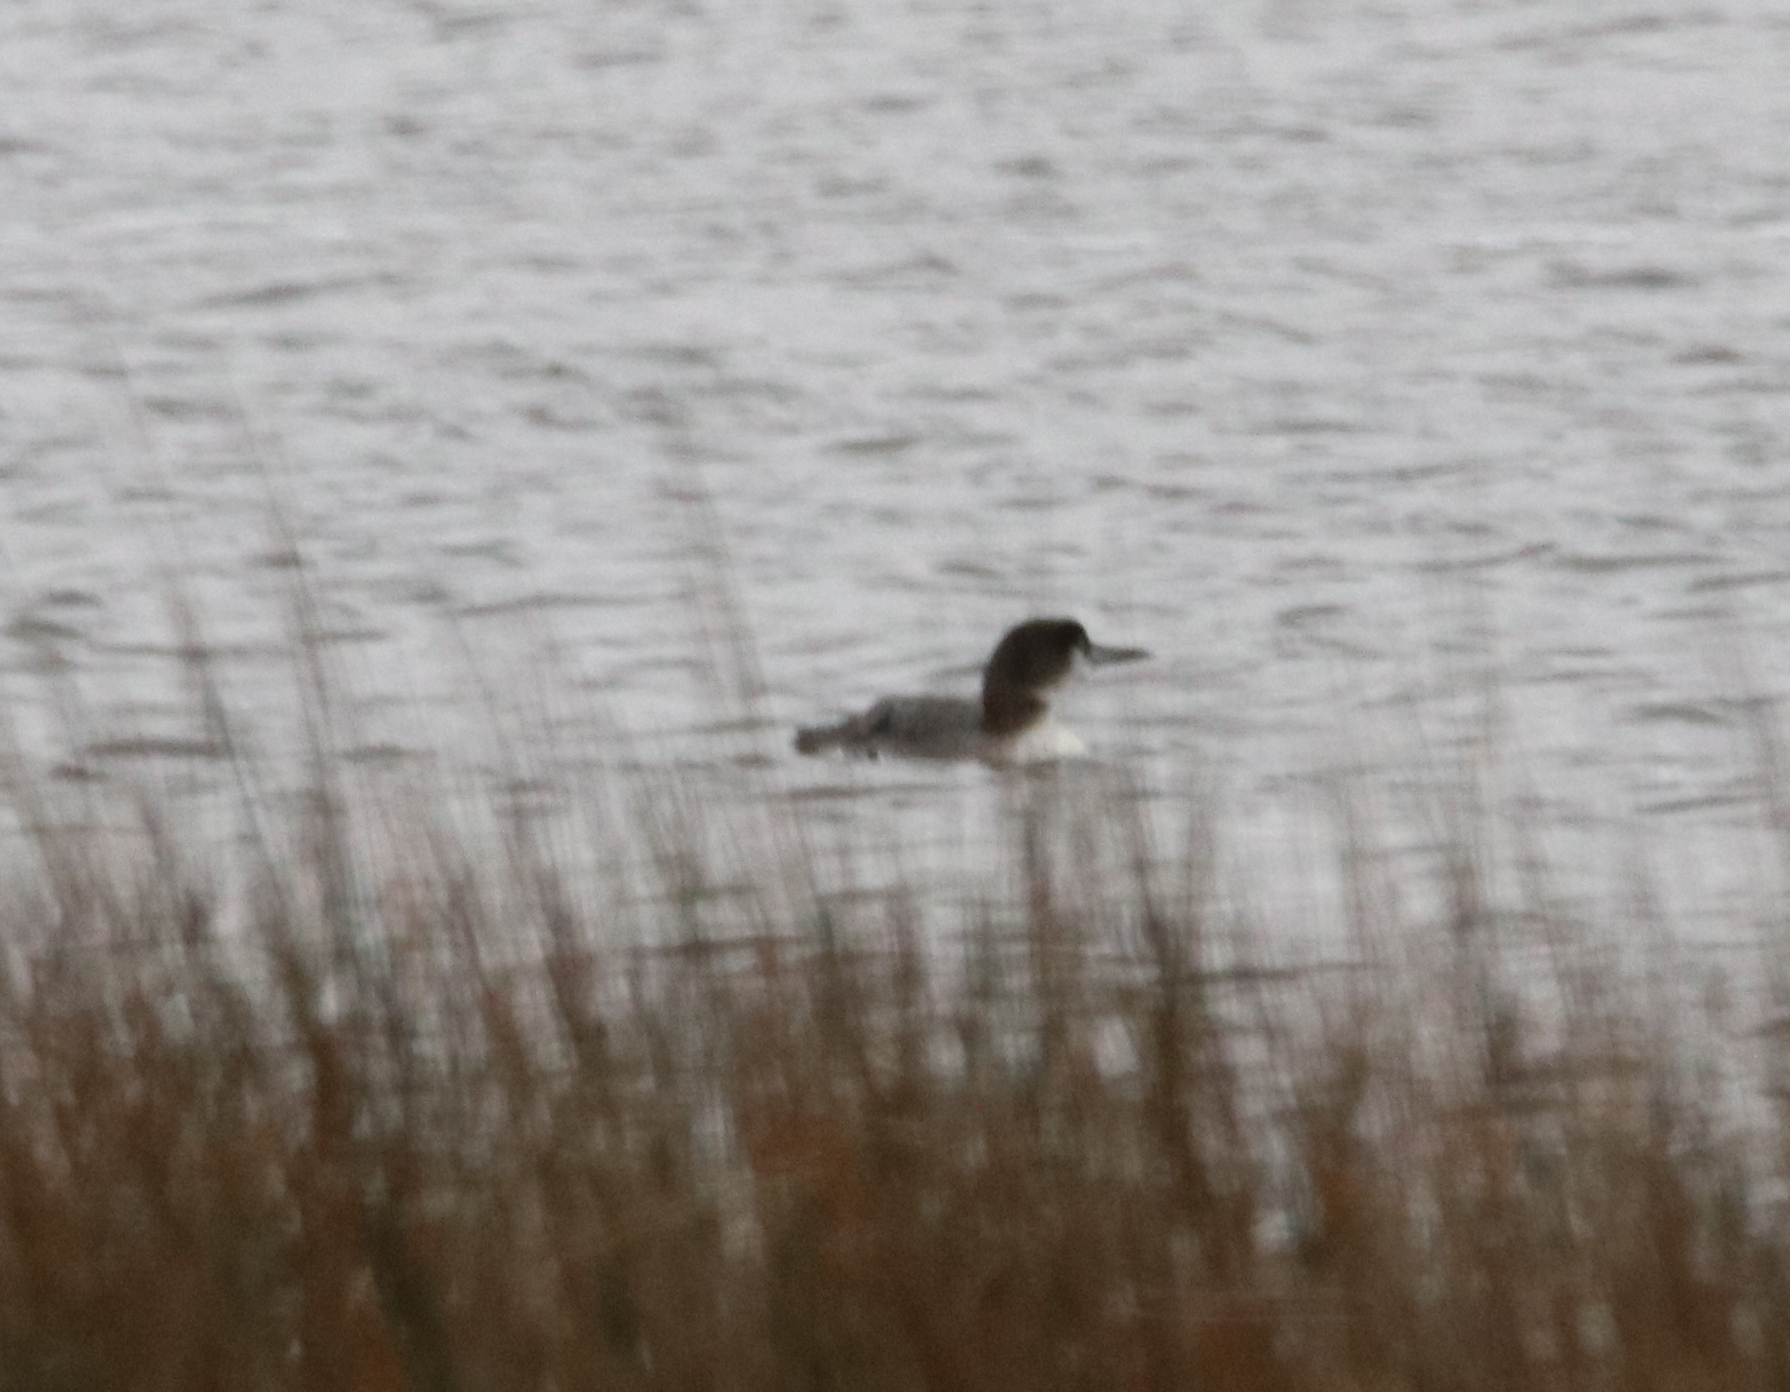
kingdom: Animalia
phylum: Chordata
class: Aves
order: Gaviiformes
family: Gaviidae
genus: Gavia
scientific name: Gavia immer
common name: Common loon
